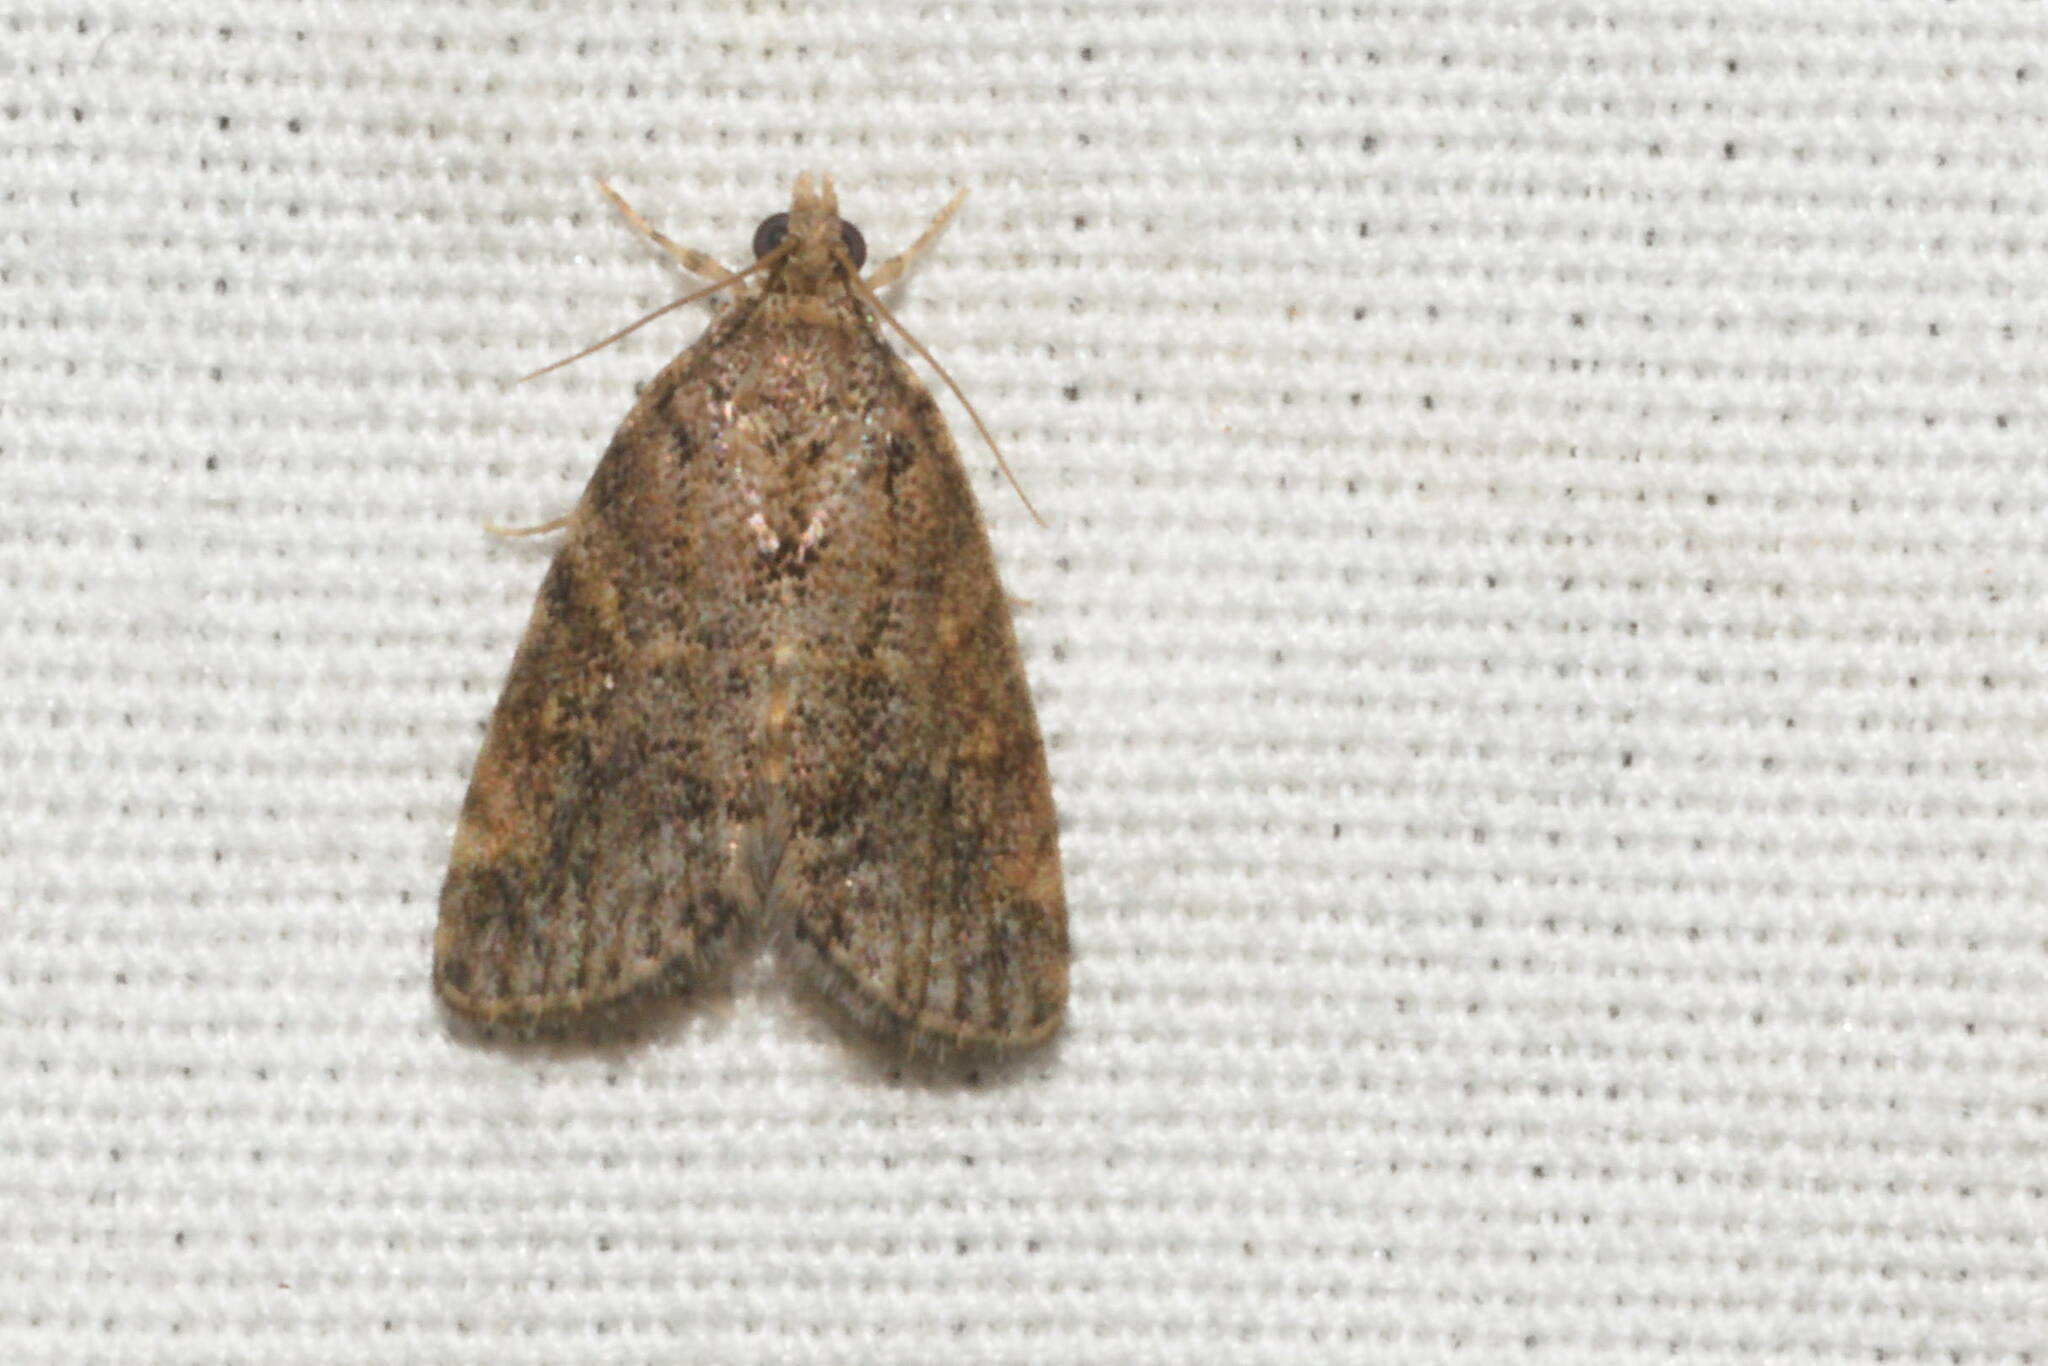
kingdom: Animalia
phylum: Arthropoda
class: Insecta
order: Lepidoptera
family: Crambidae
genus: Mestolobes
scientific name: Mestolobes abnormis
